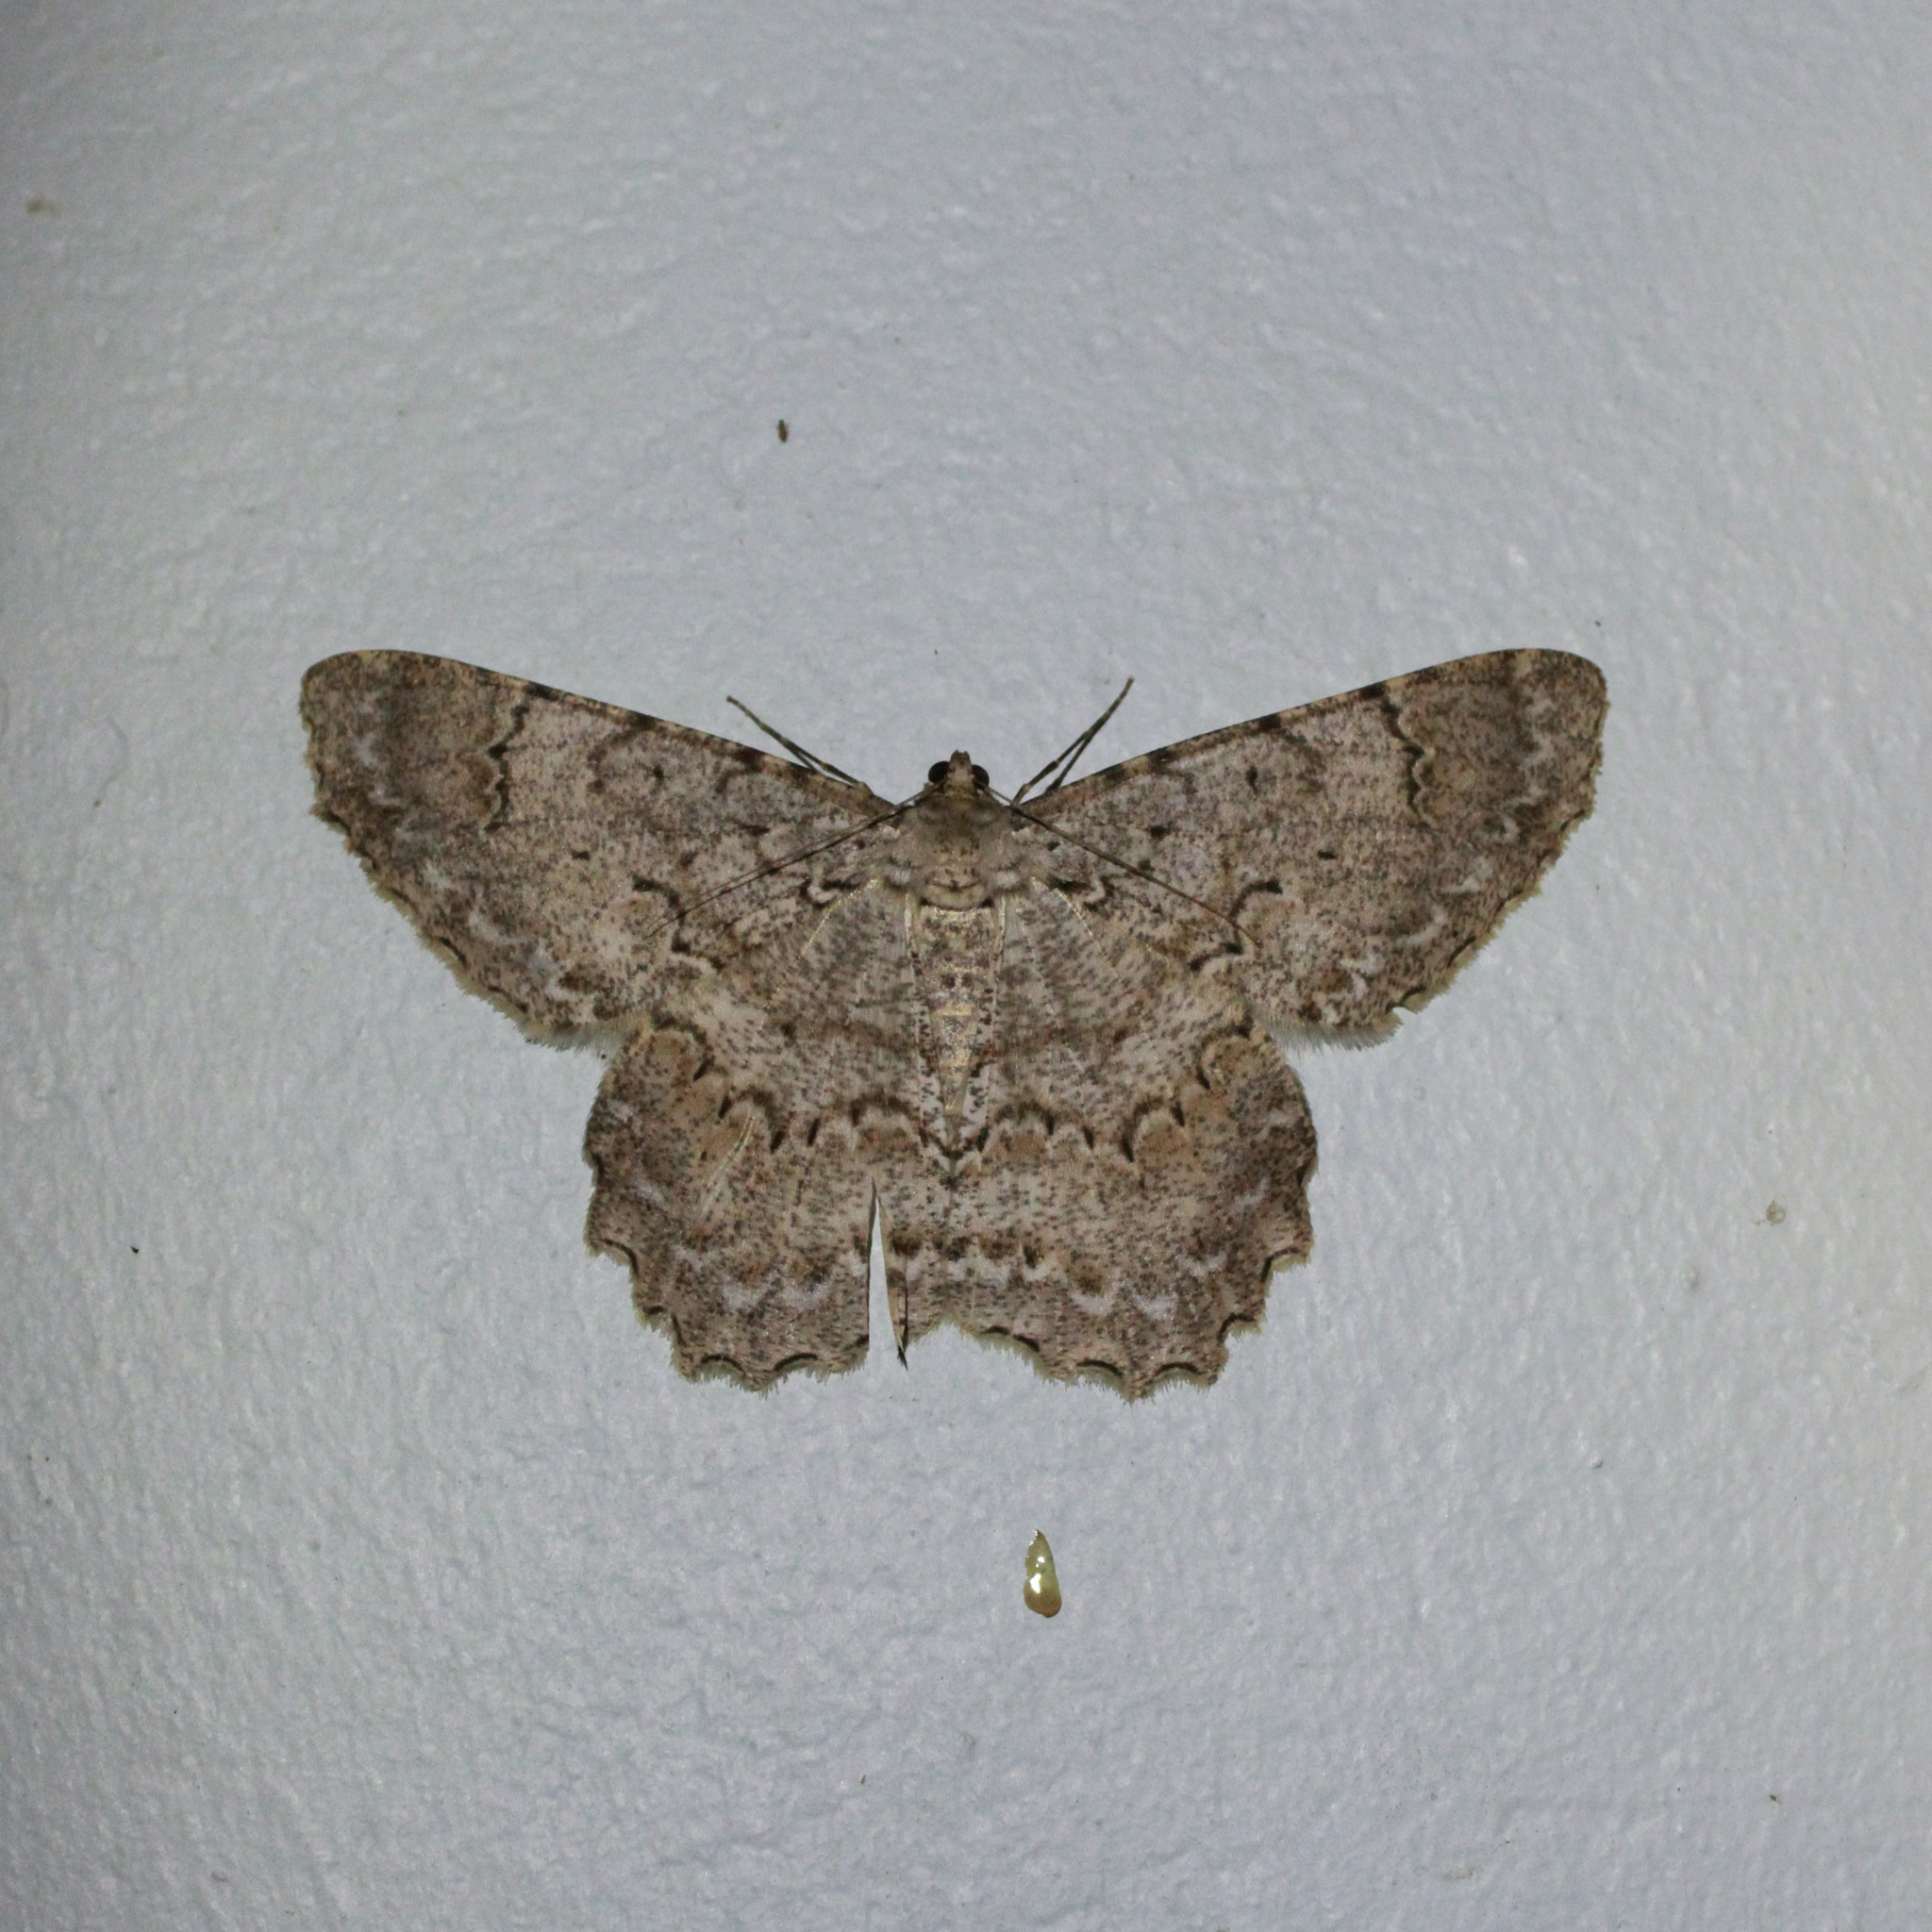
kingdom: Animalia
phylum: Arthropoda
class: Insecta
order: Lepidoptera
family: Geometridae
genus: Epimecis
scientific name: Epimecis matronaria
